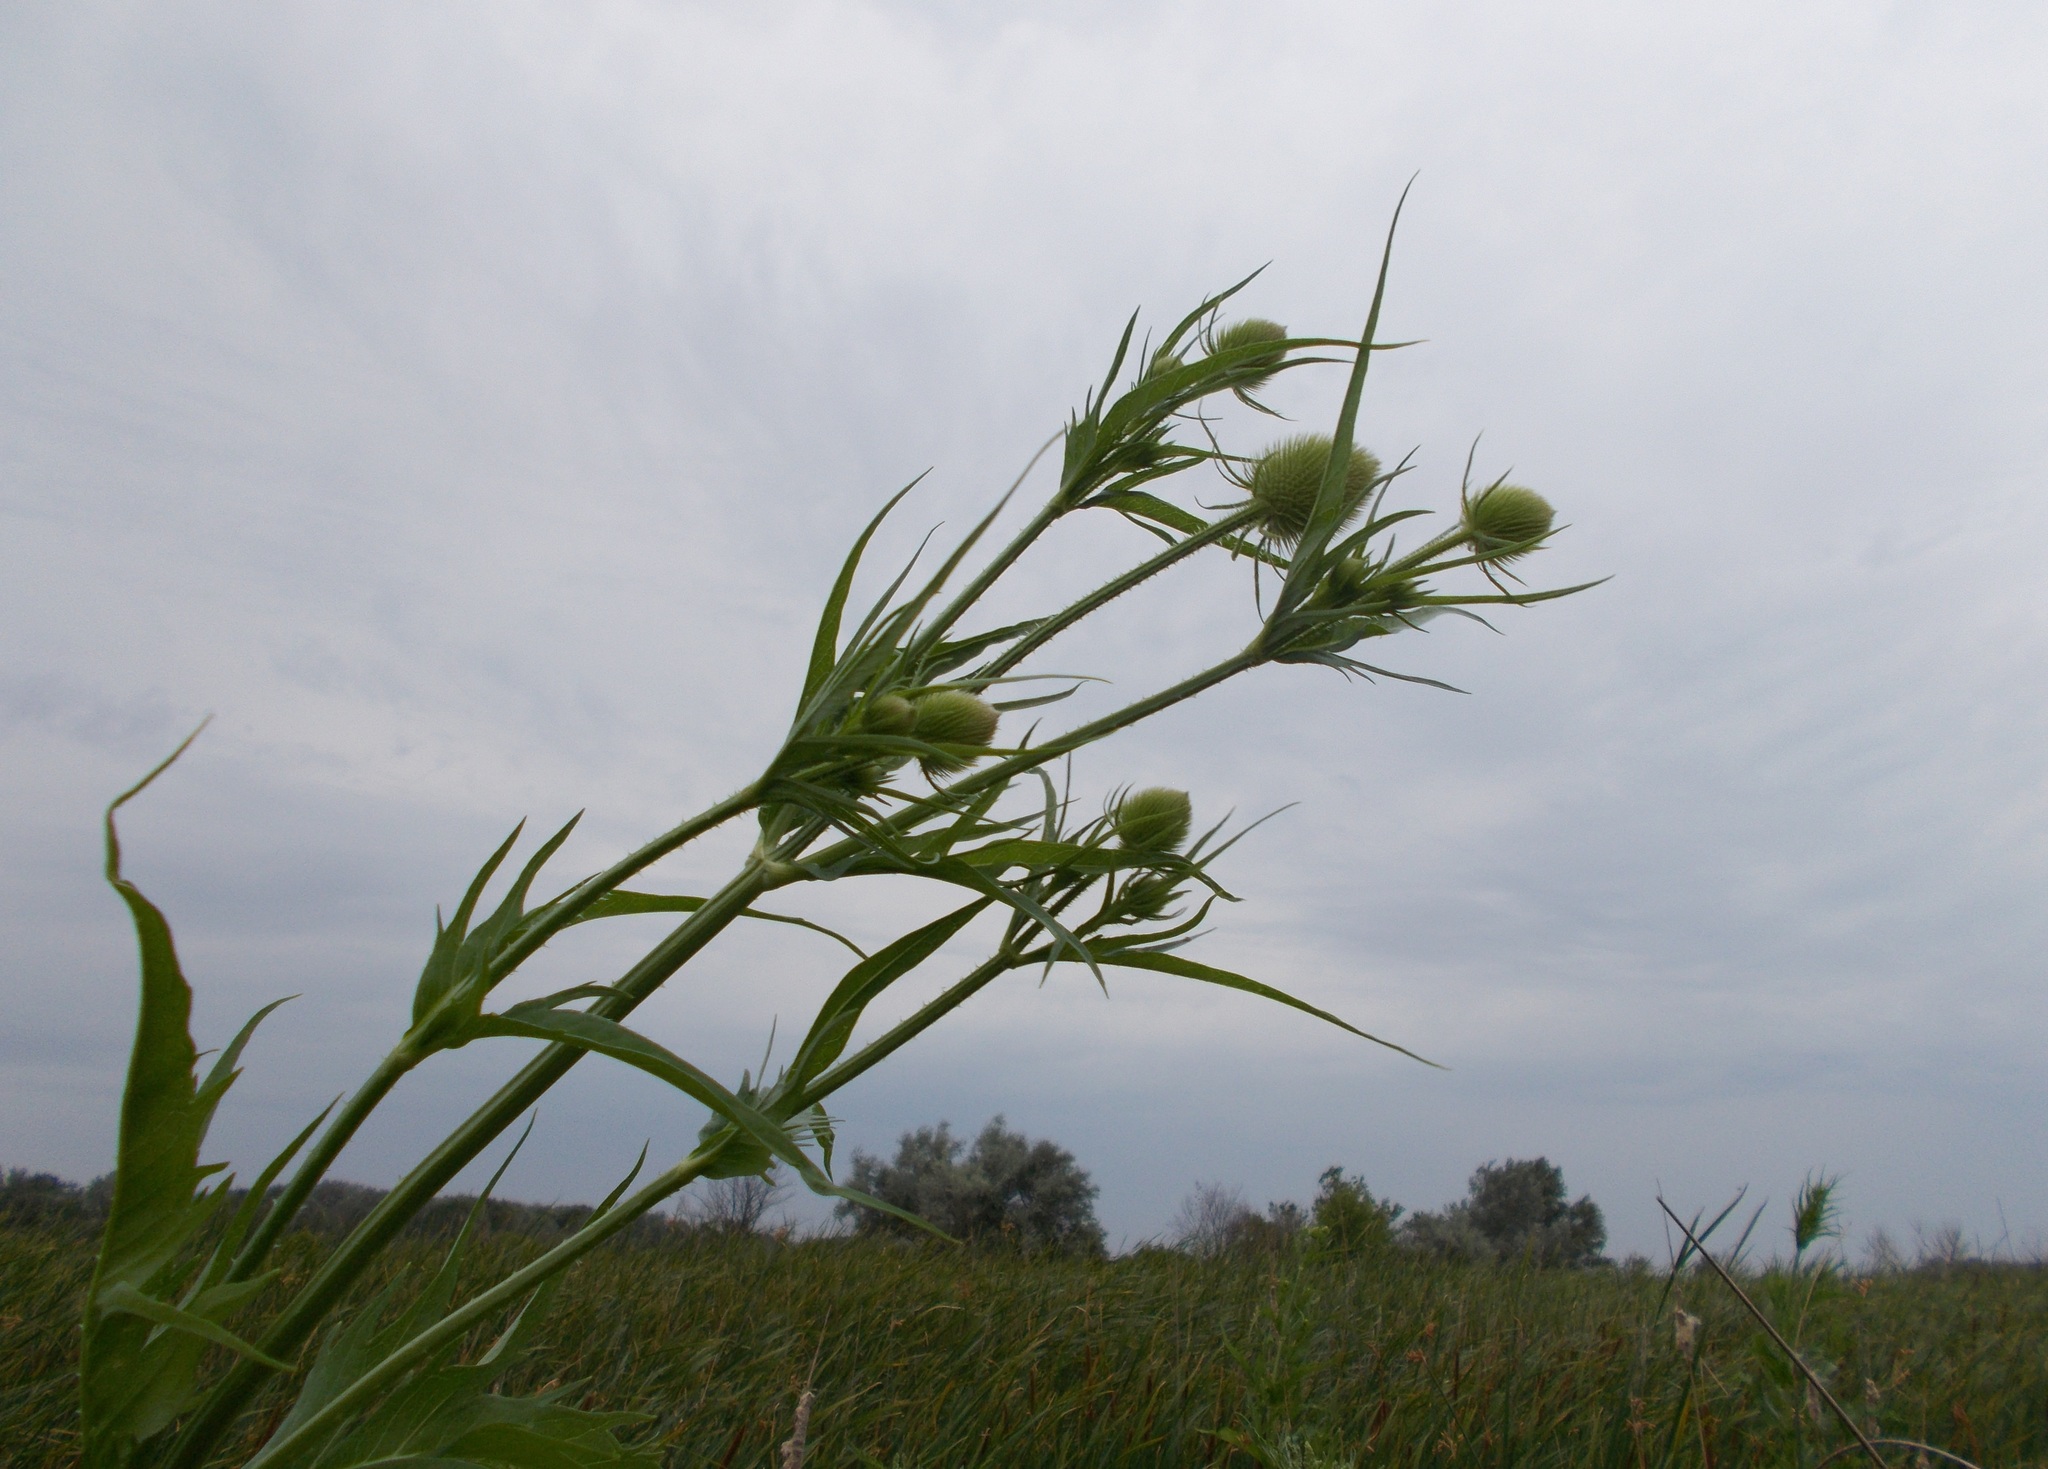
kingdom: Plantae
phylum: Tracheophyta
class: Magnoliopsida
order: Dipsacales
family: Caprifoliaceae
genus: Dipsacus
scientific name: Dipsacus laciniatus
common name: Cut-leaved teasel
